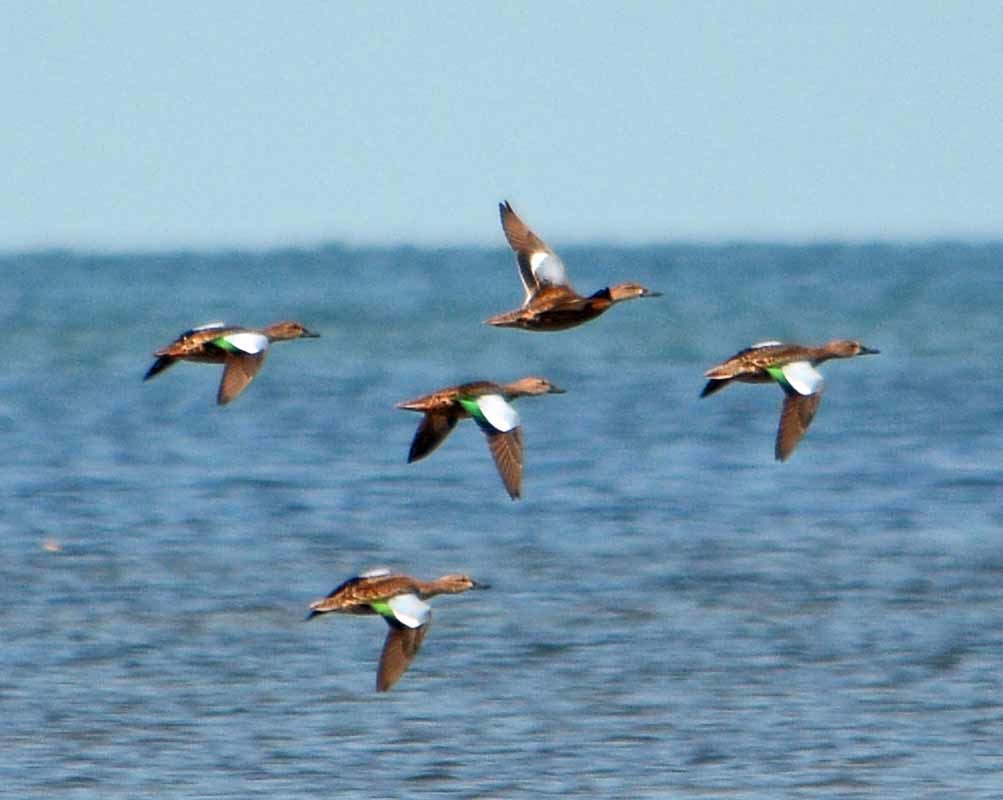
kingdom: Animalia
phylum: Chordata
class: Aves
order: Anseriformes
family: Anatidae
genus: Spatula
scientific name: Spatula discors
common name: Blue-winged teal
